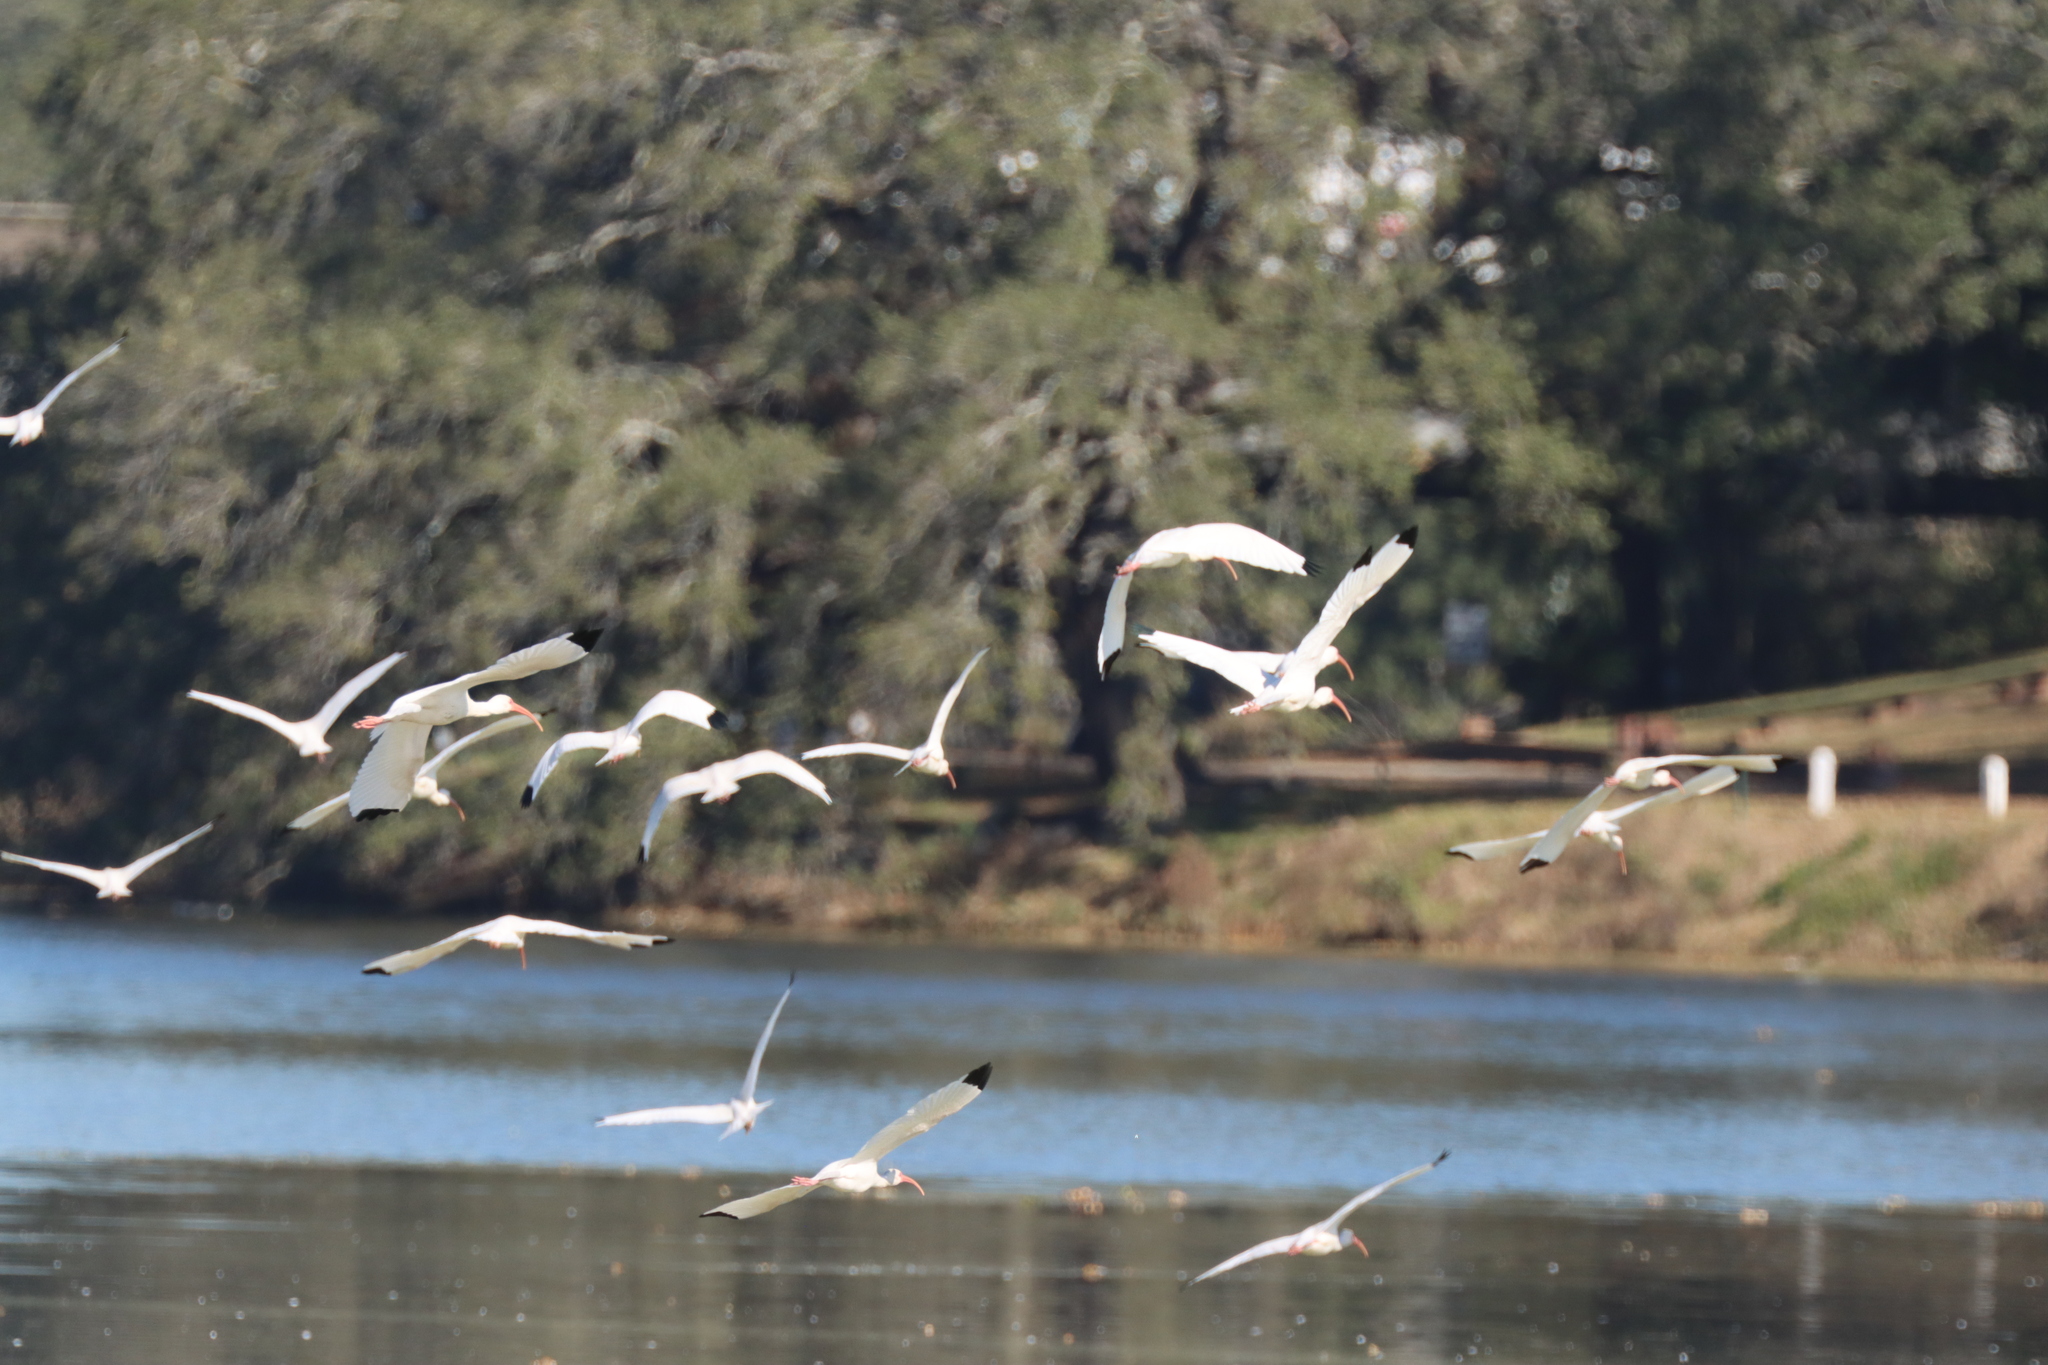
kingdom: Animalia
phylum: Chordata
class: Aves
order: Pelecaniformes
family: Threskiornithidae
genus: Eudocimus
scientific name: Eudocimus albus
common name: White ibis
